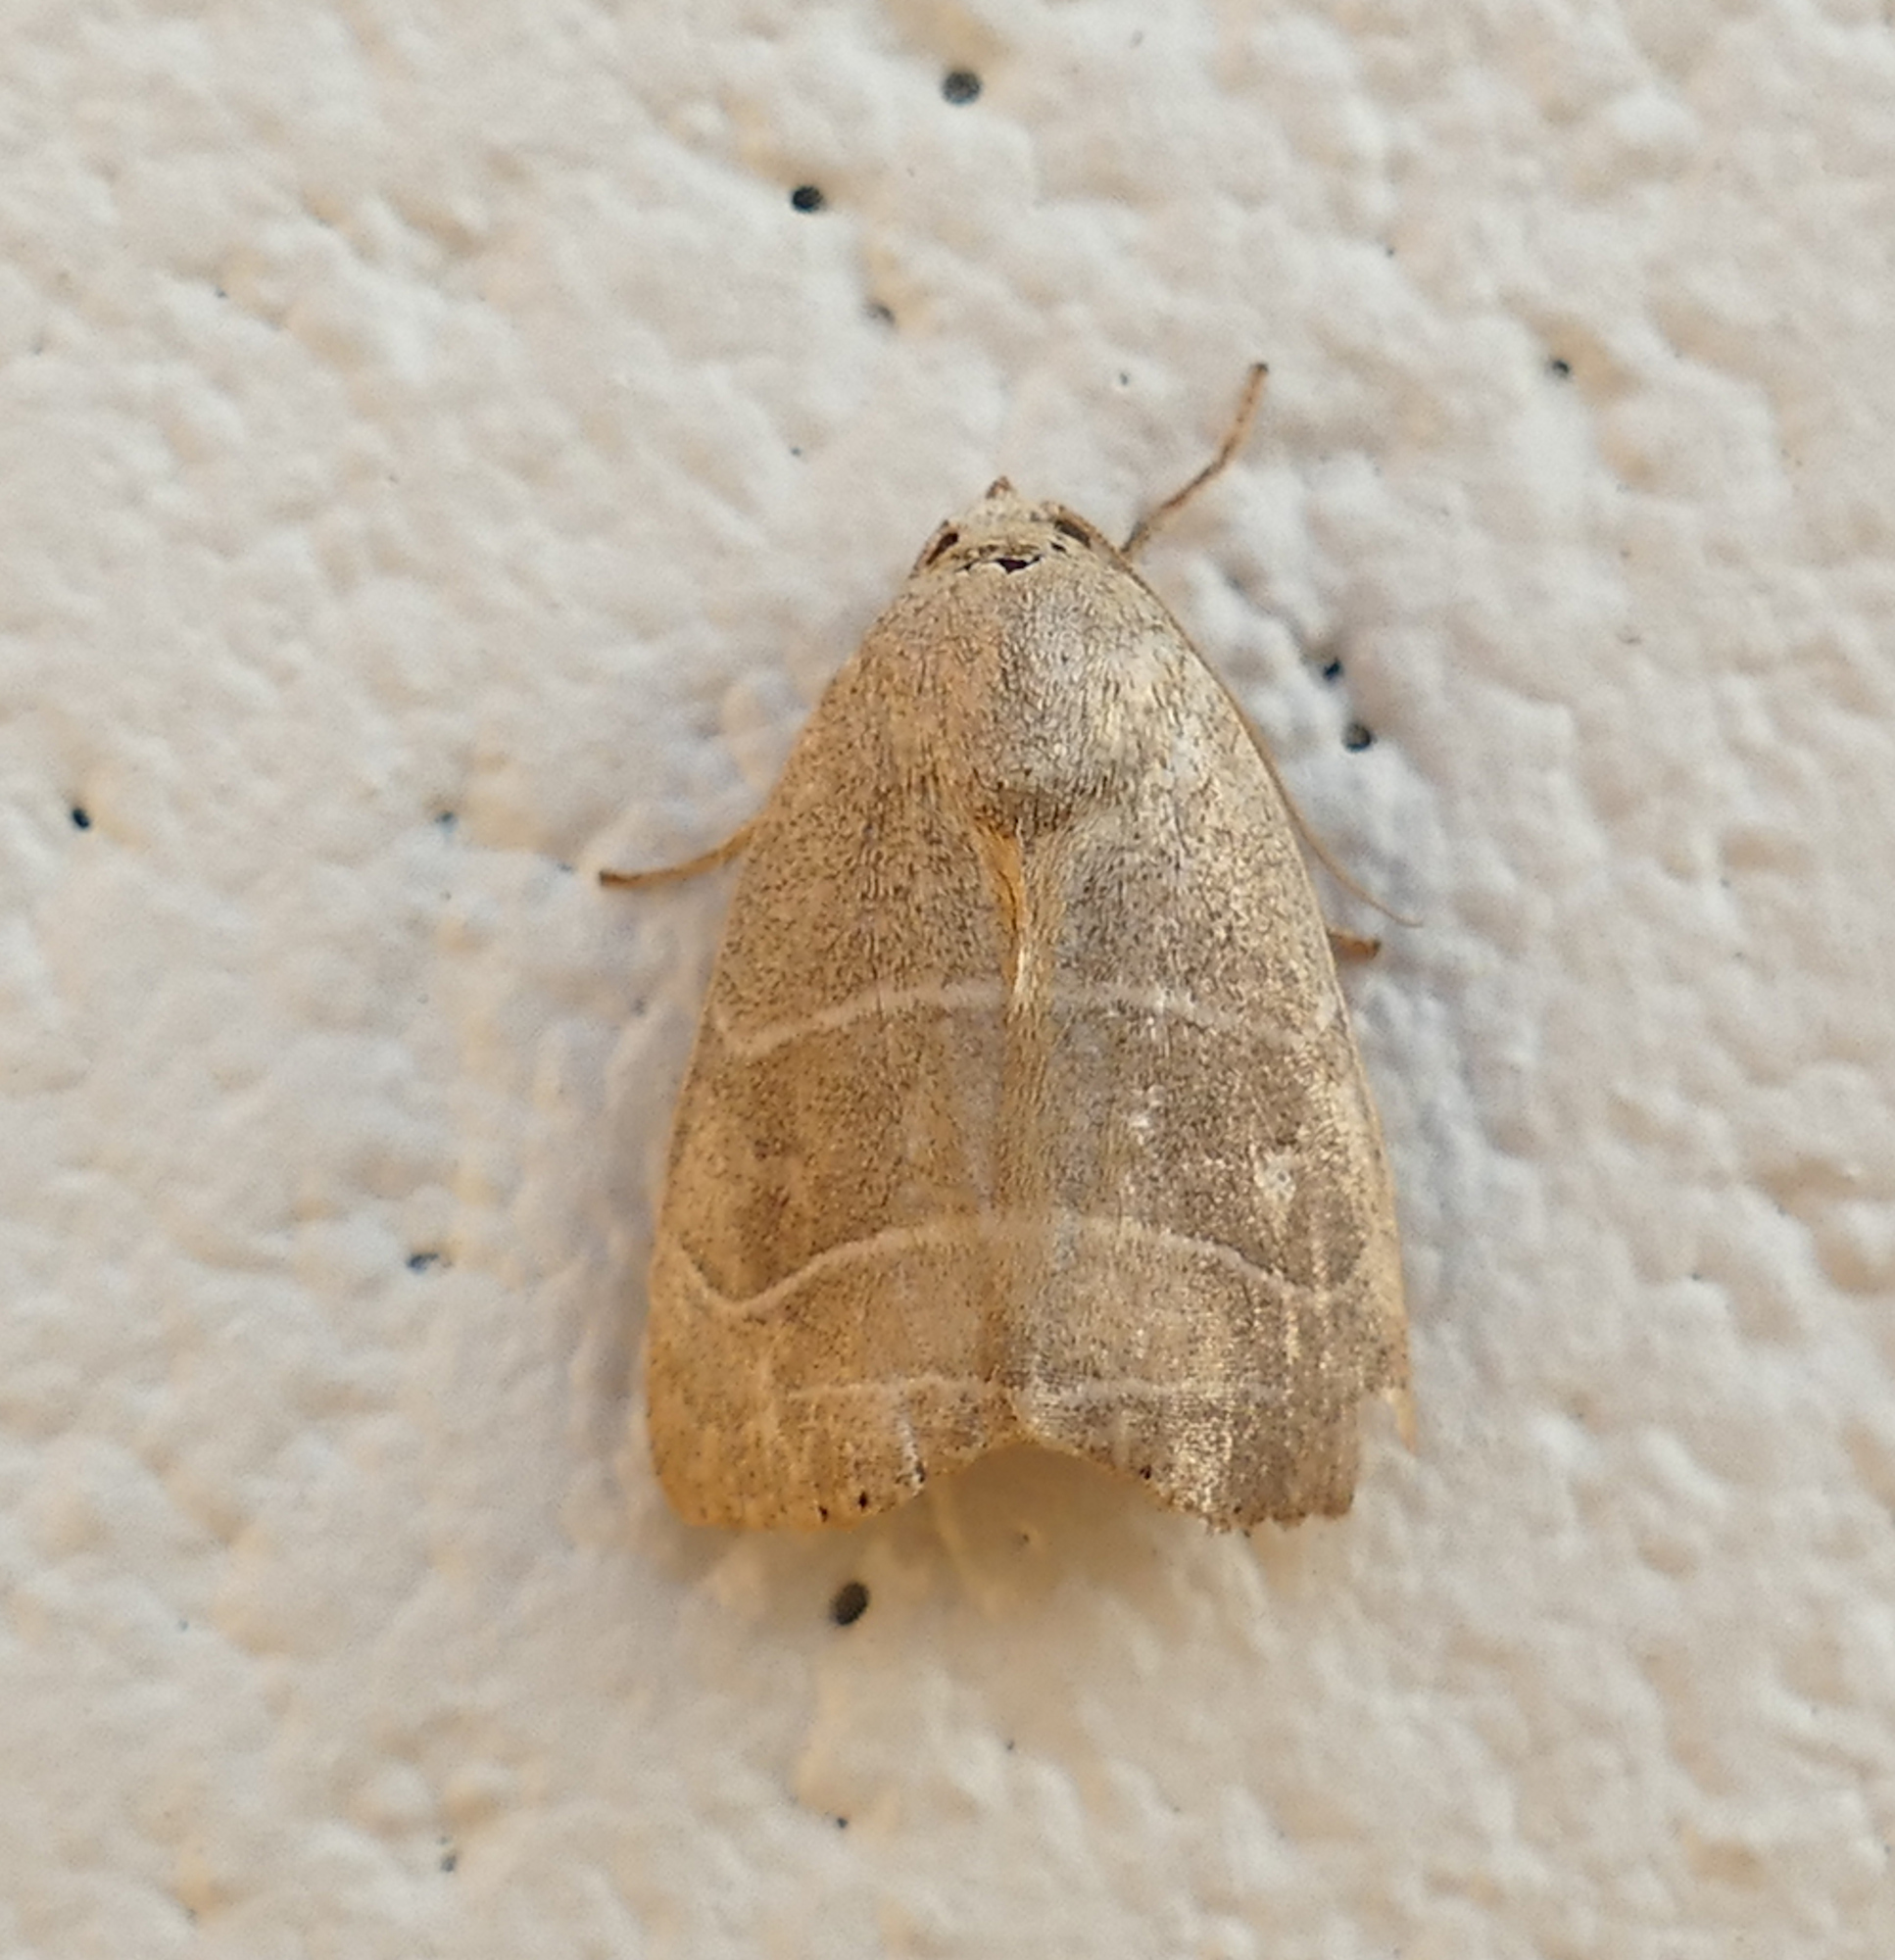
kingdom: Animalia
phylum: Arthropoda
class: Insecta
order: Lepidoptera
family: Noctuidae
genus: Bagisara
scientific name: Bagisara rectifascia
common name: Straight lined mallow moth
